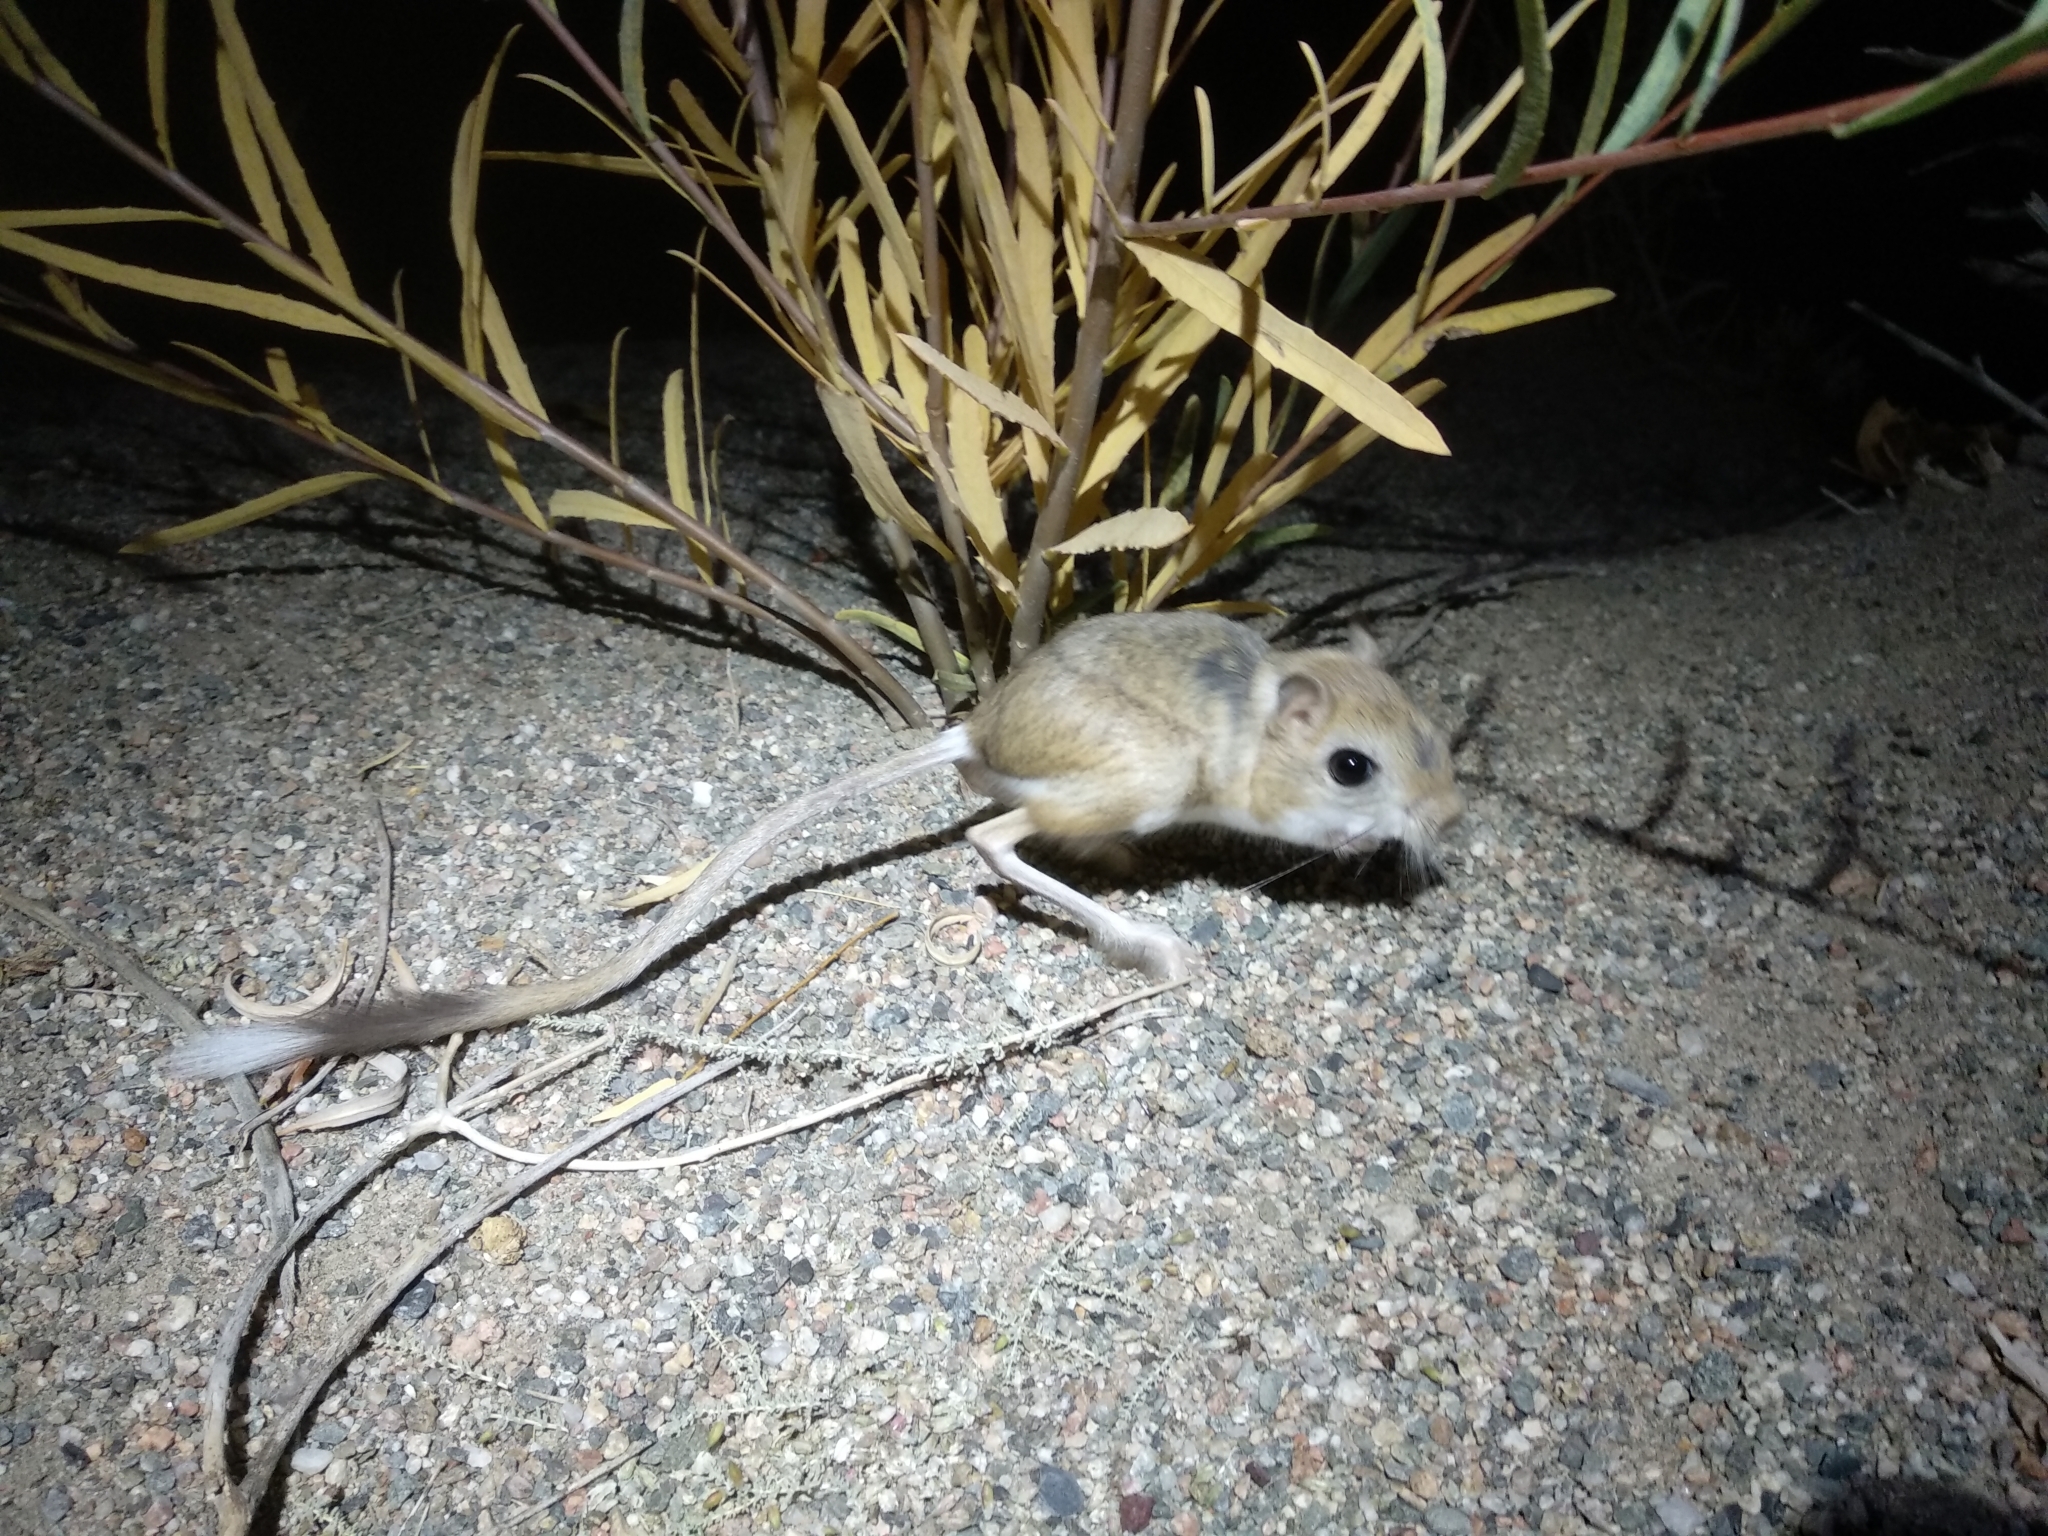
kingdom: Animalia
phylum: Chordata
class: Mammalia
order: Rodentia
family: Dipodidae
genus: Dipus
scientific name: Dipus sagitta
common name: Northern three-toed jerboa
